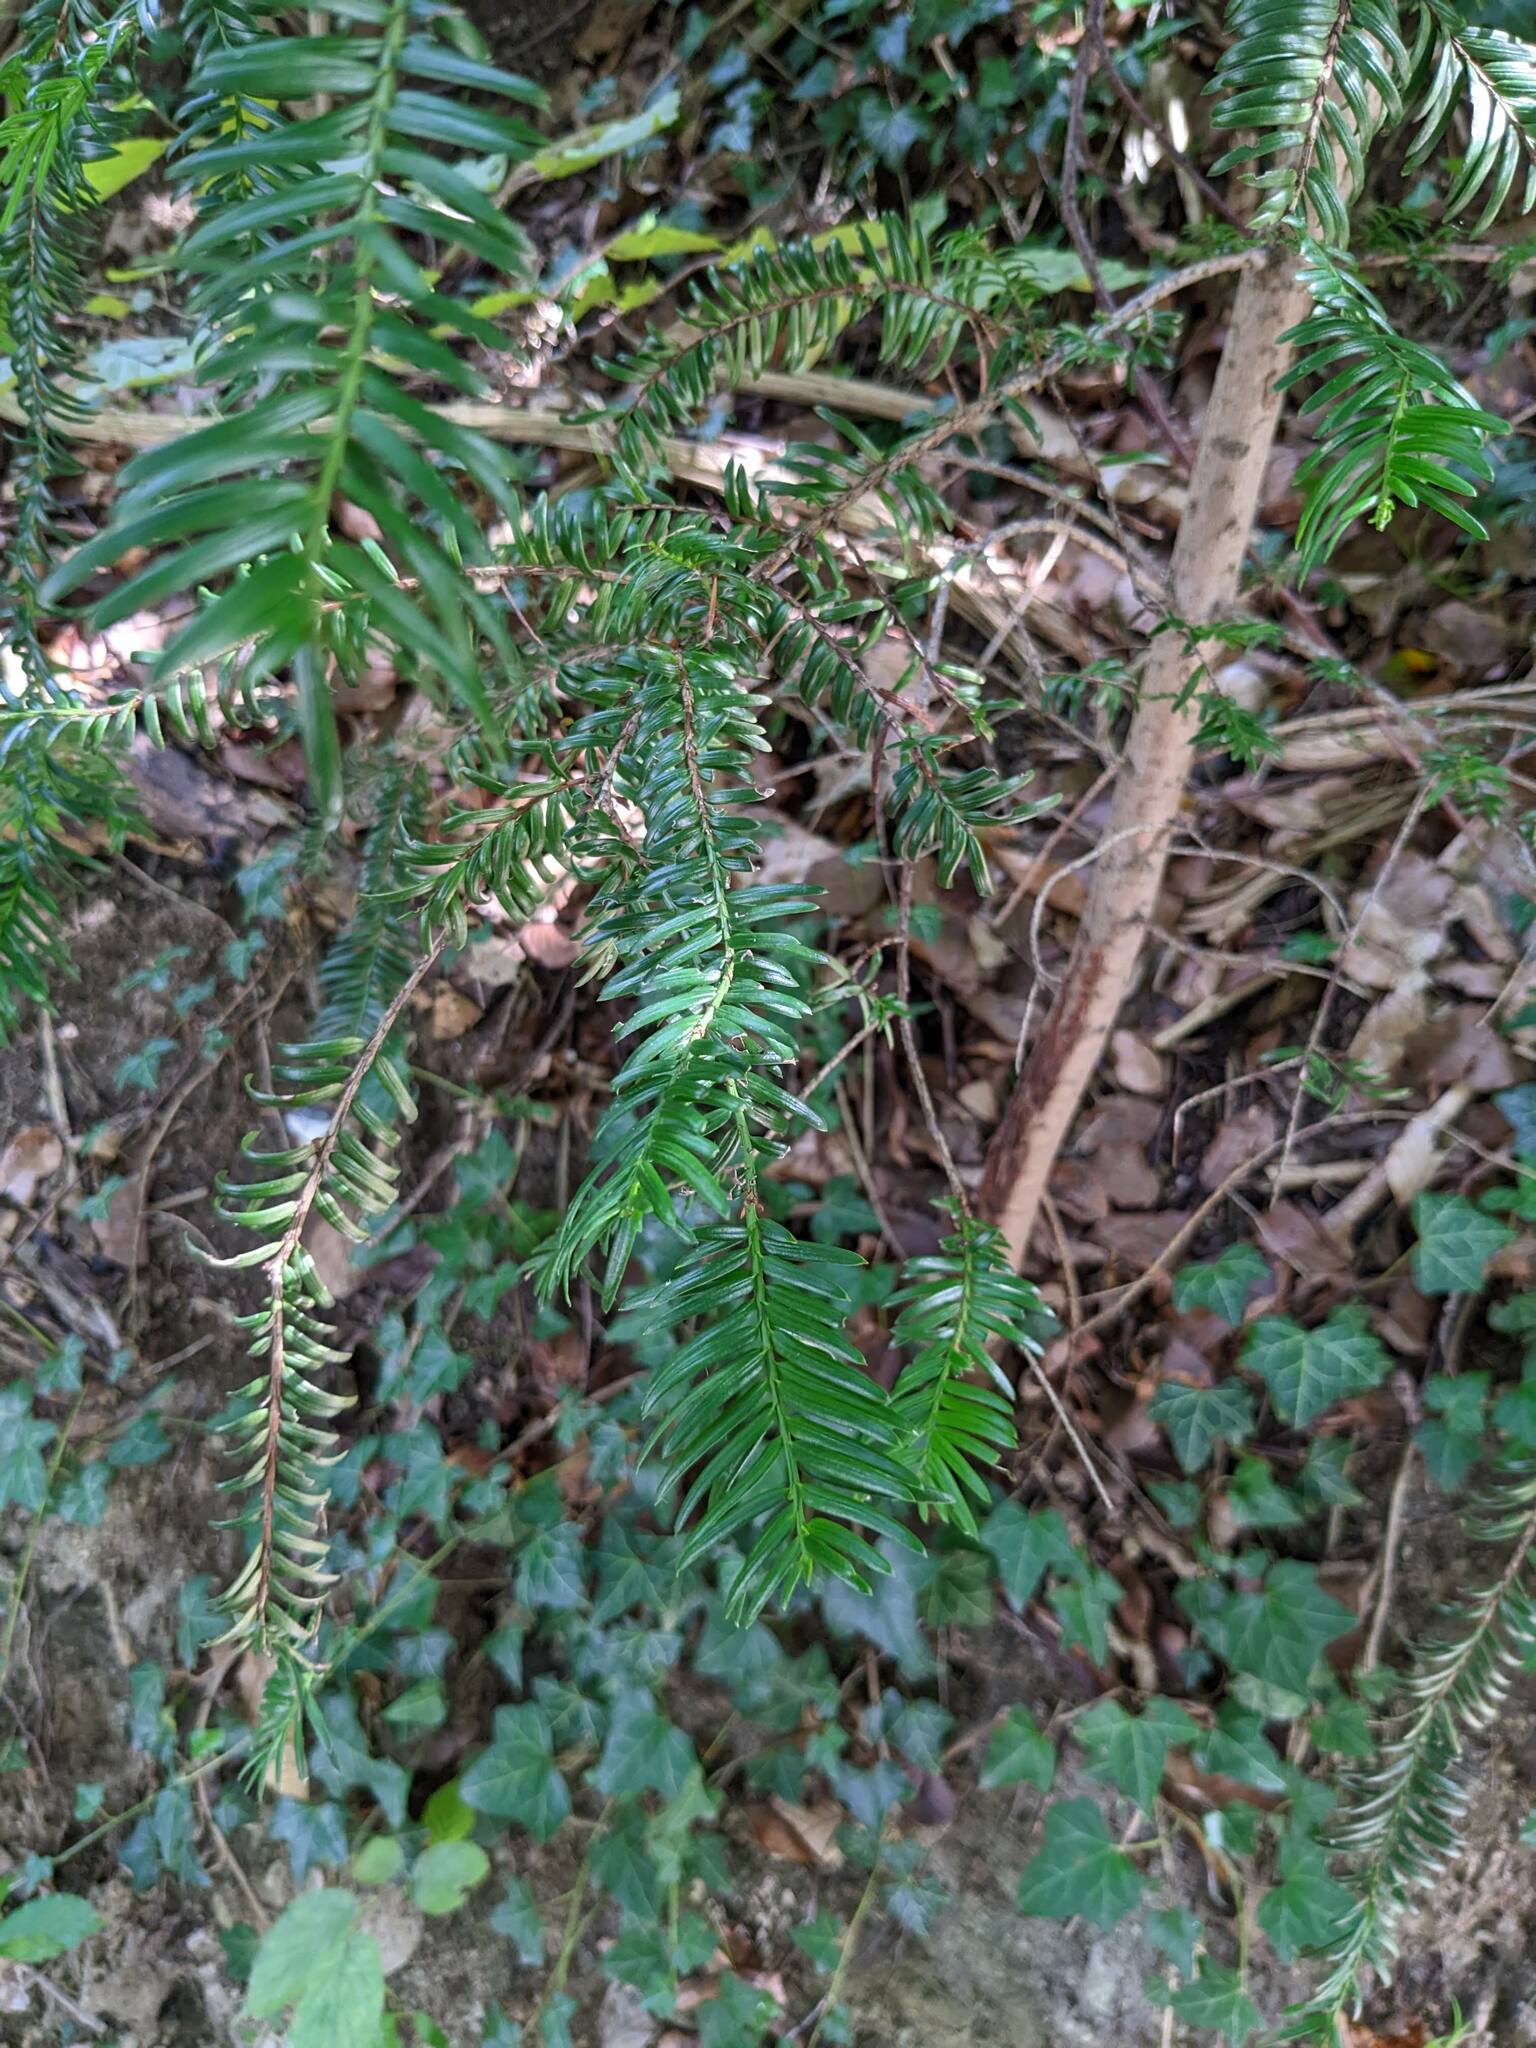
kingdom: Plantae
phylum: Tracheophyta
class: Pinopsida
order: Pinales
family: Taxaceae
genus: Taxus
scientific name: Taxus baccata
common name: Yew
